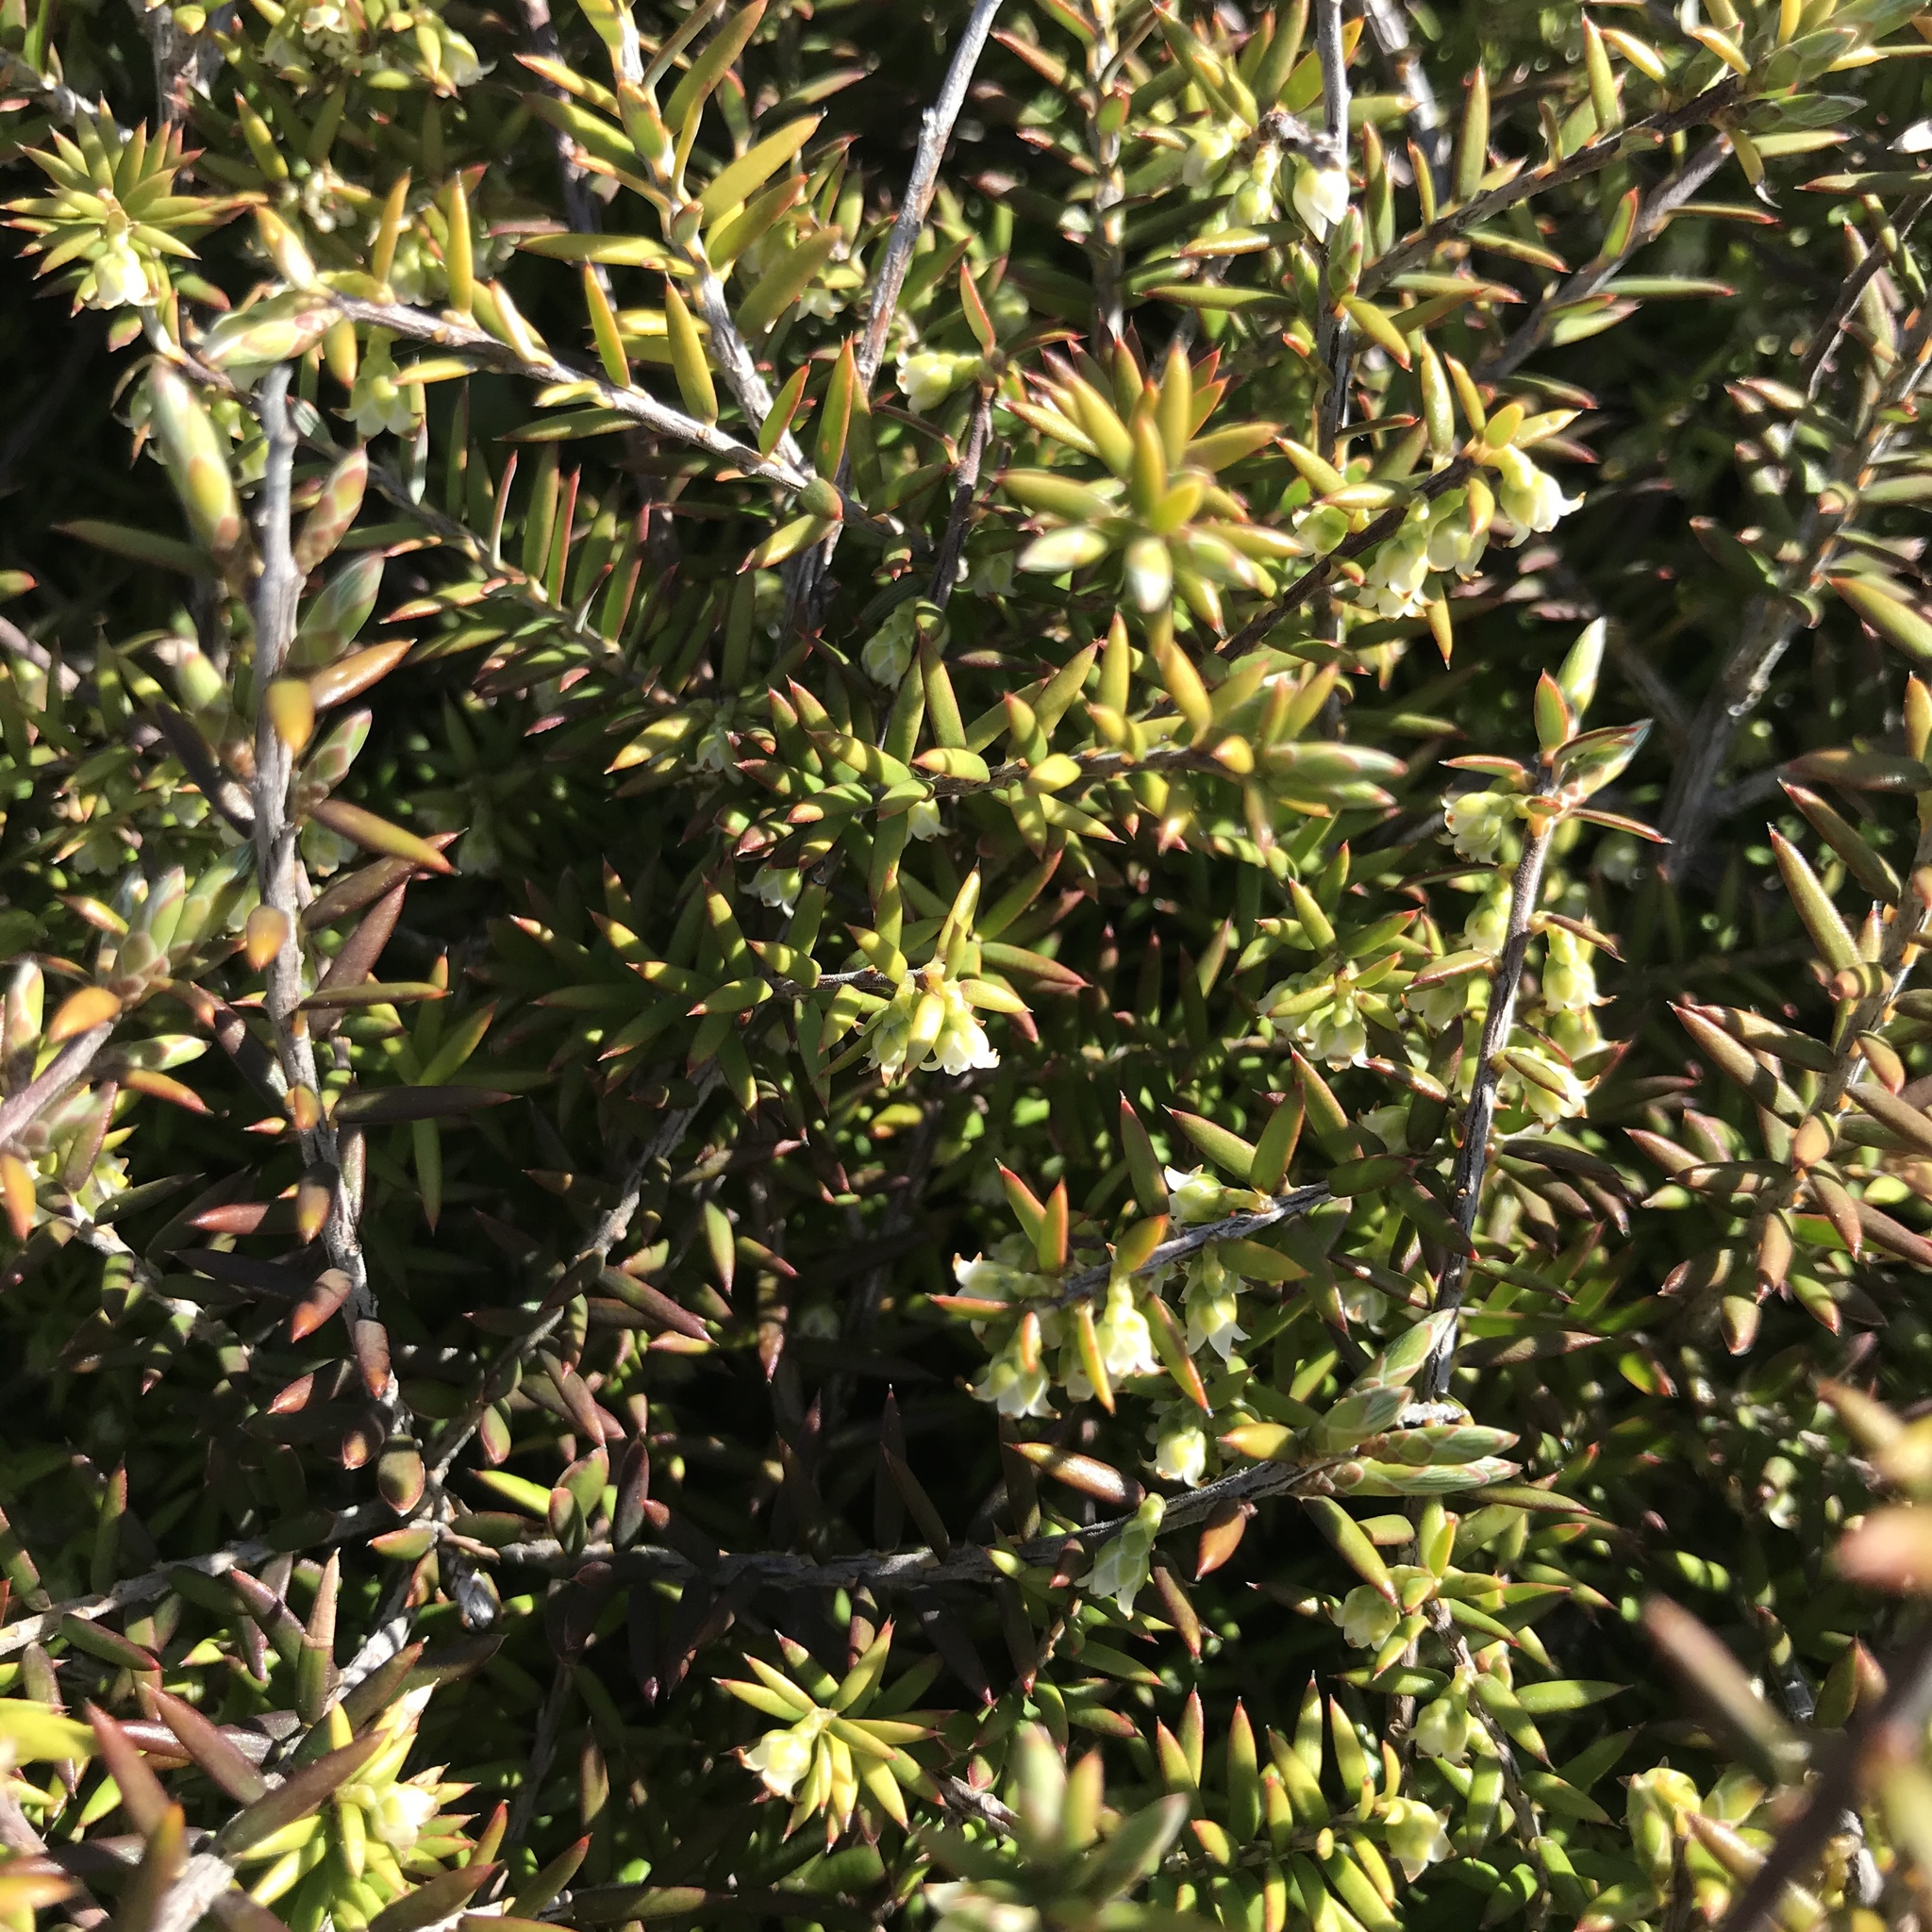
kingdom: Plantae
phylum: Tracheophyta
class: Magnoliopsida
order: Ericales
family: Ericaceae
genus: Leptecophylla
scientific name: Leptecophylla juniperina
